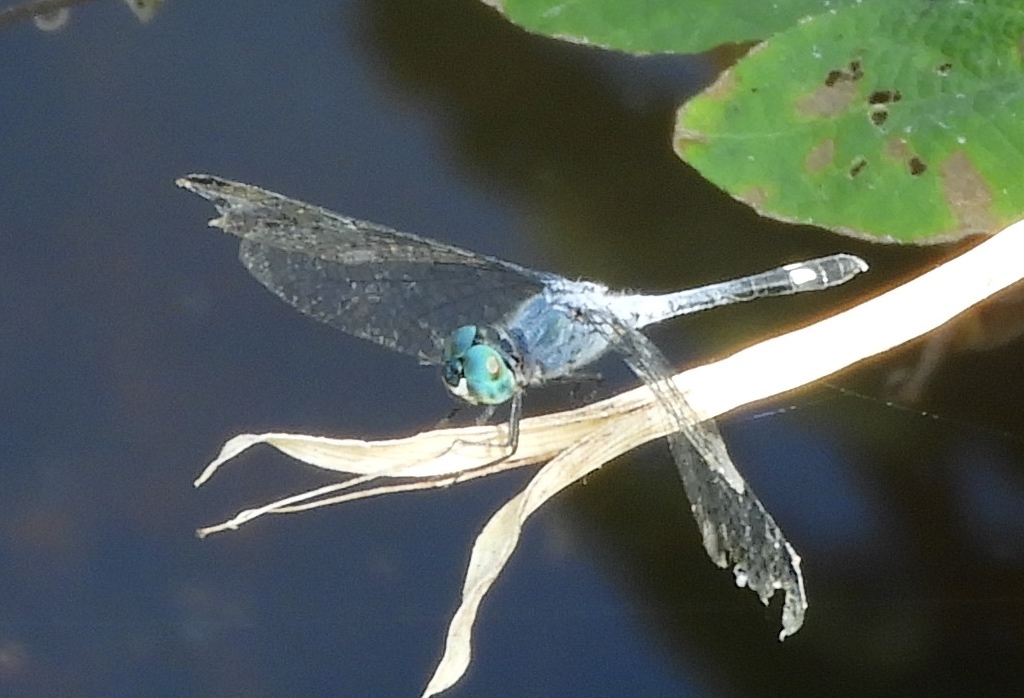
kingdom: Animalia
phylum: Arthropoda
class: Insecta
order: Odonata
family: Libellulidae
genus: Micrathyria
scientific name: Micrathyria aequalis
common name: Spot-tailed dasher
